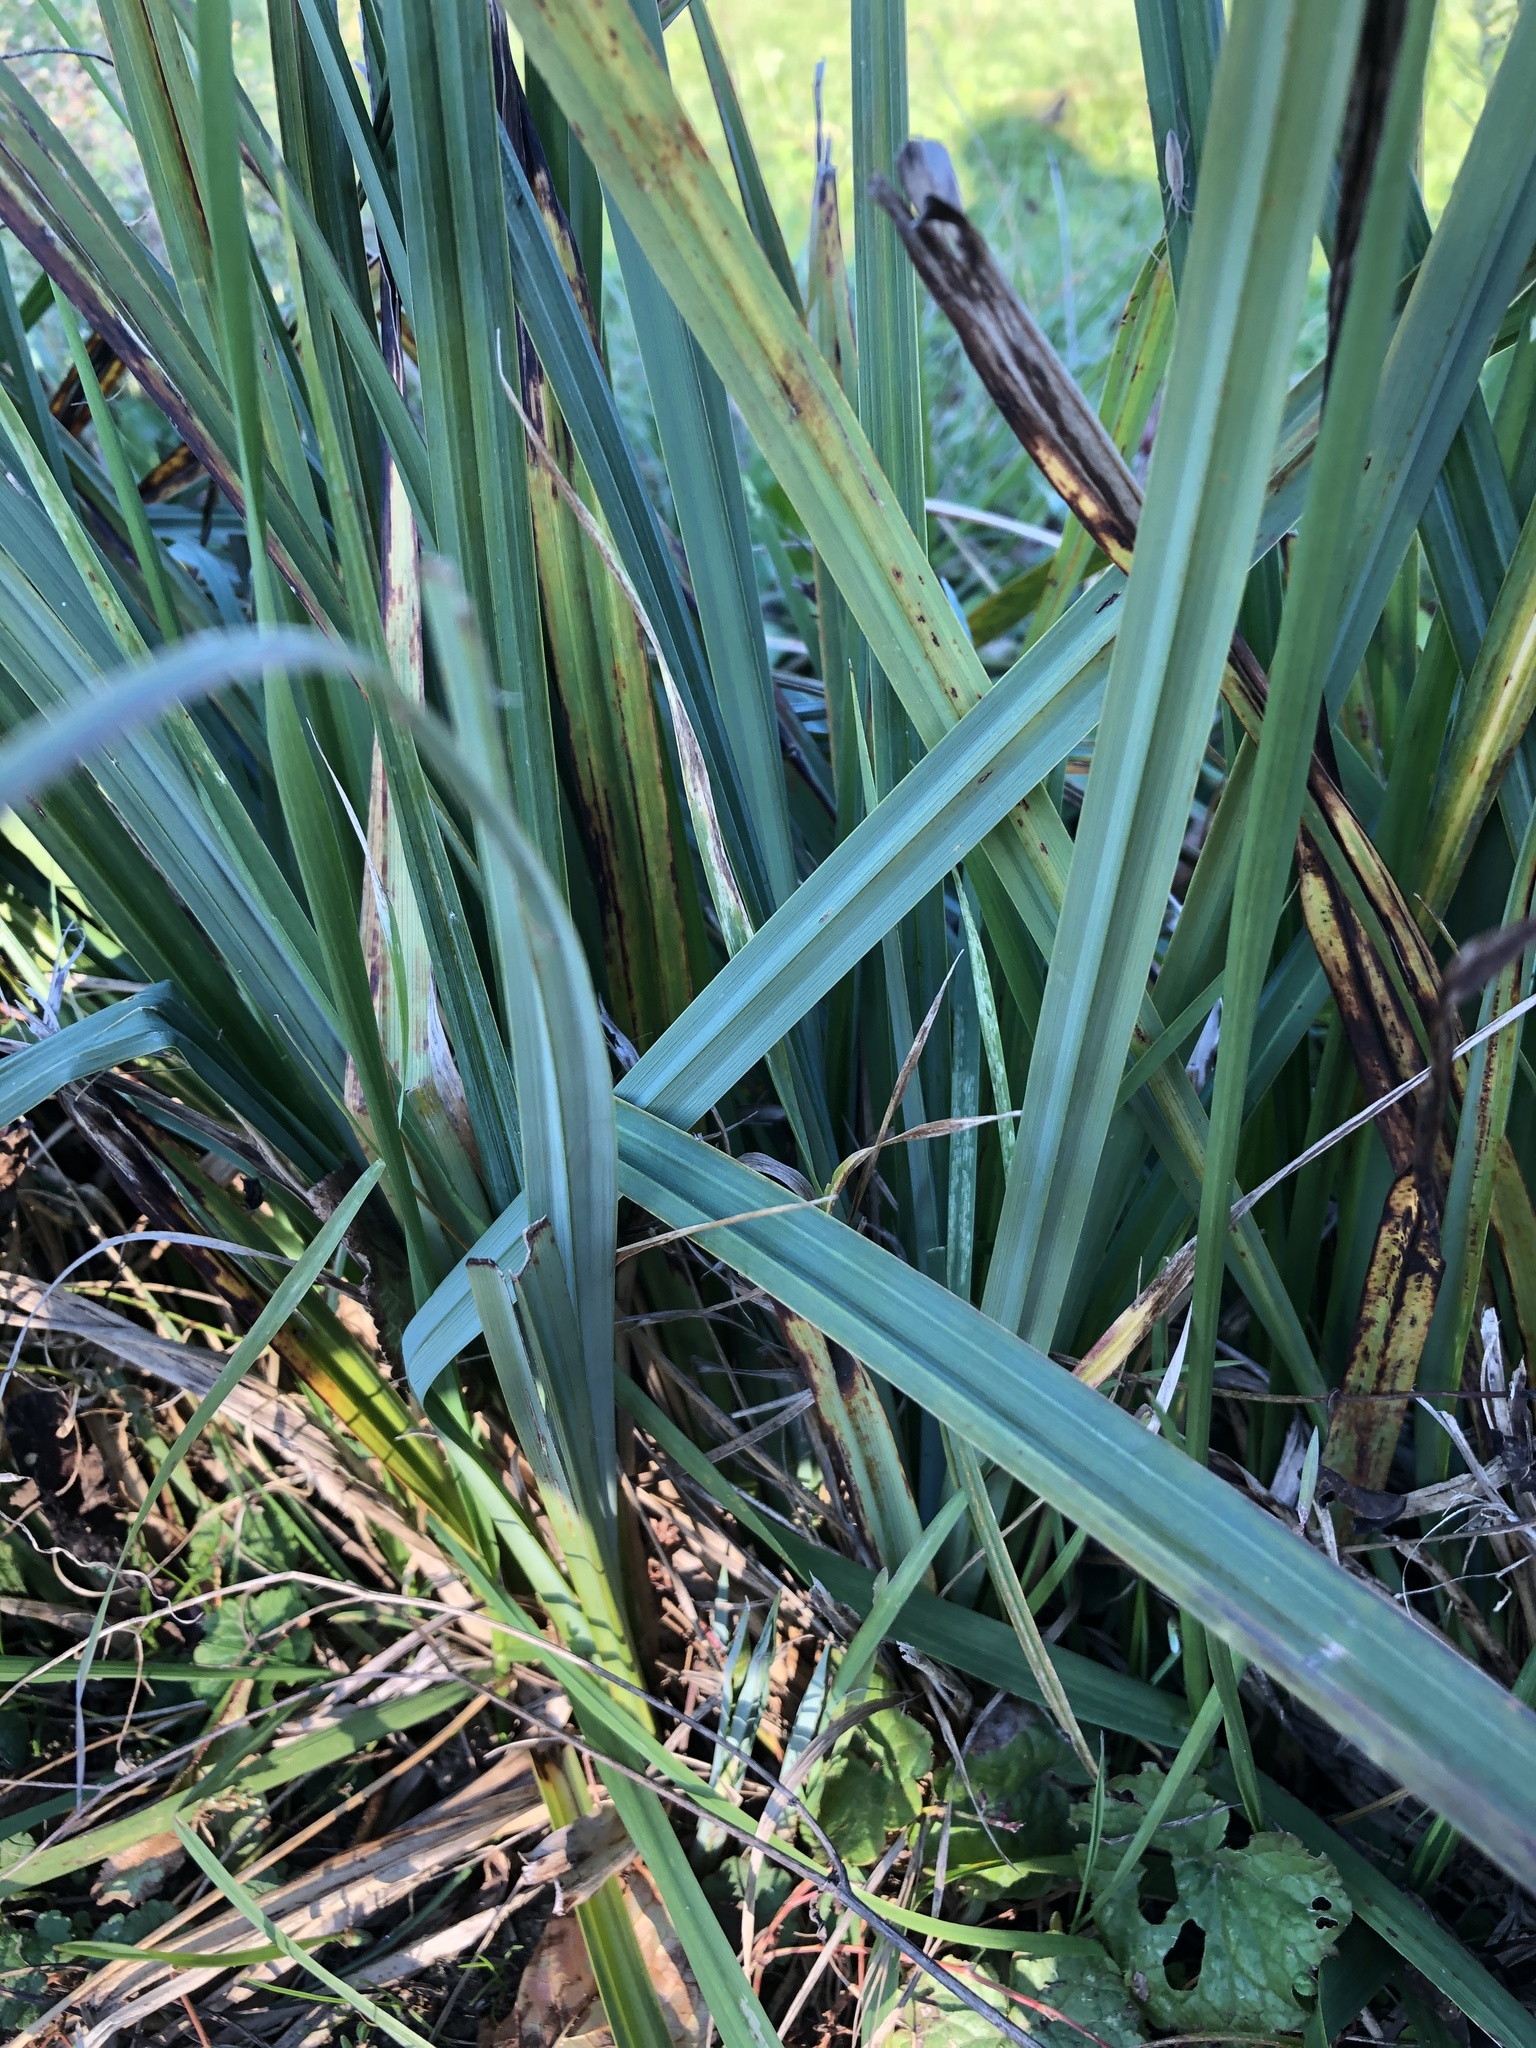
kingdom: Plantae
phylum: Tracheophyta
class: Liliopsida
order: Asparagales
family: Iridaceae
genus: Iris
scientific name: Iris pseudacorus
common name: Yellow flag
